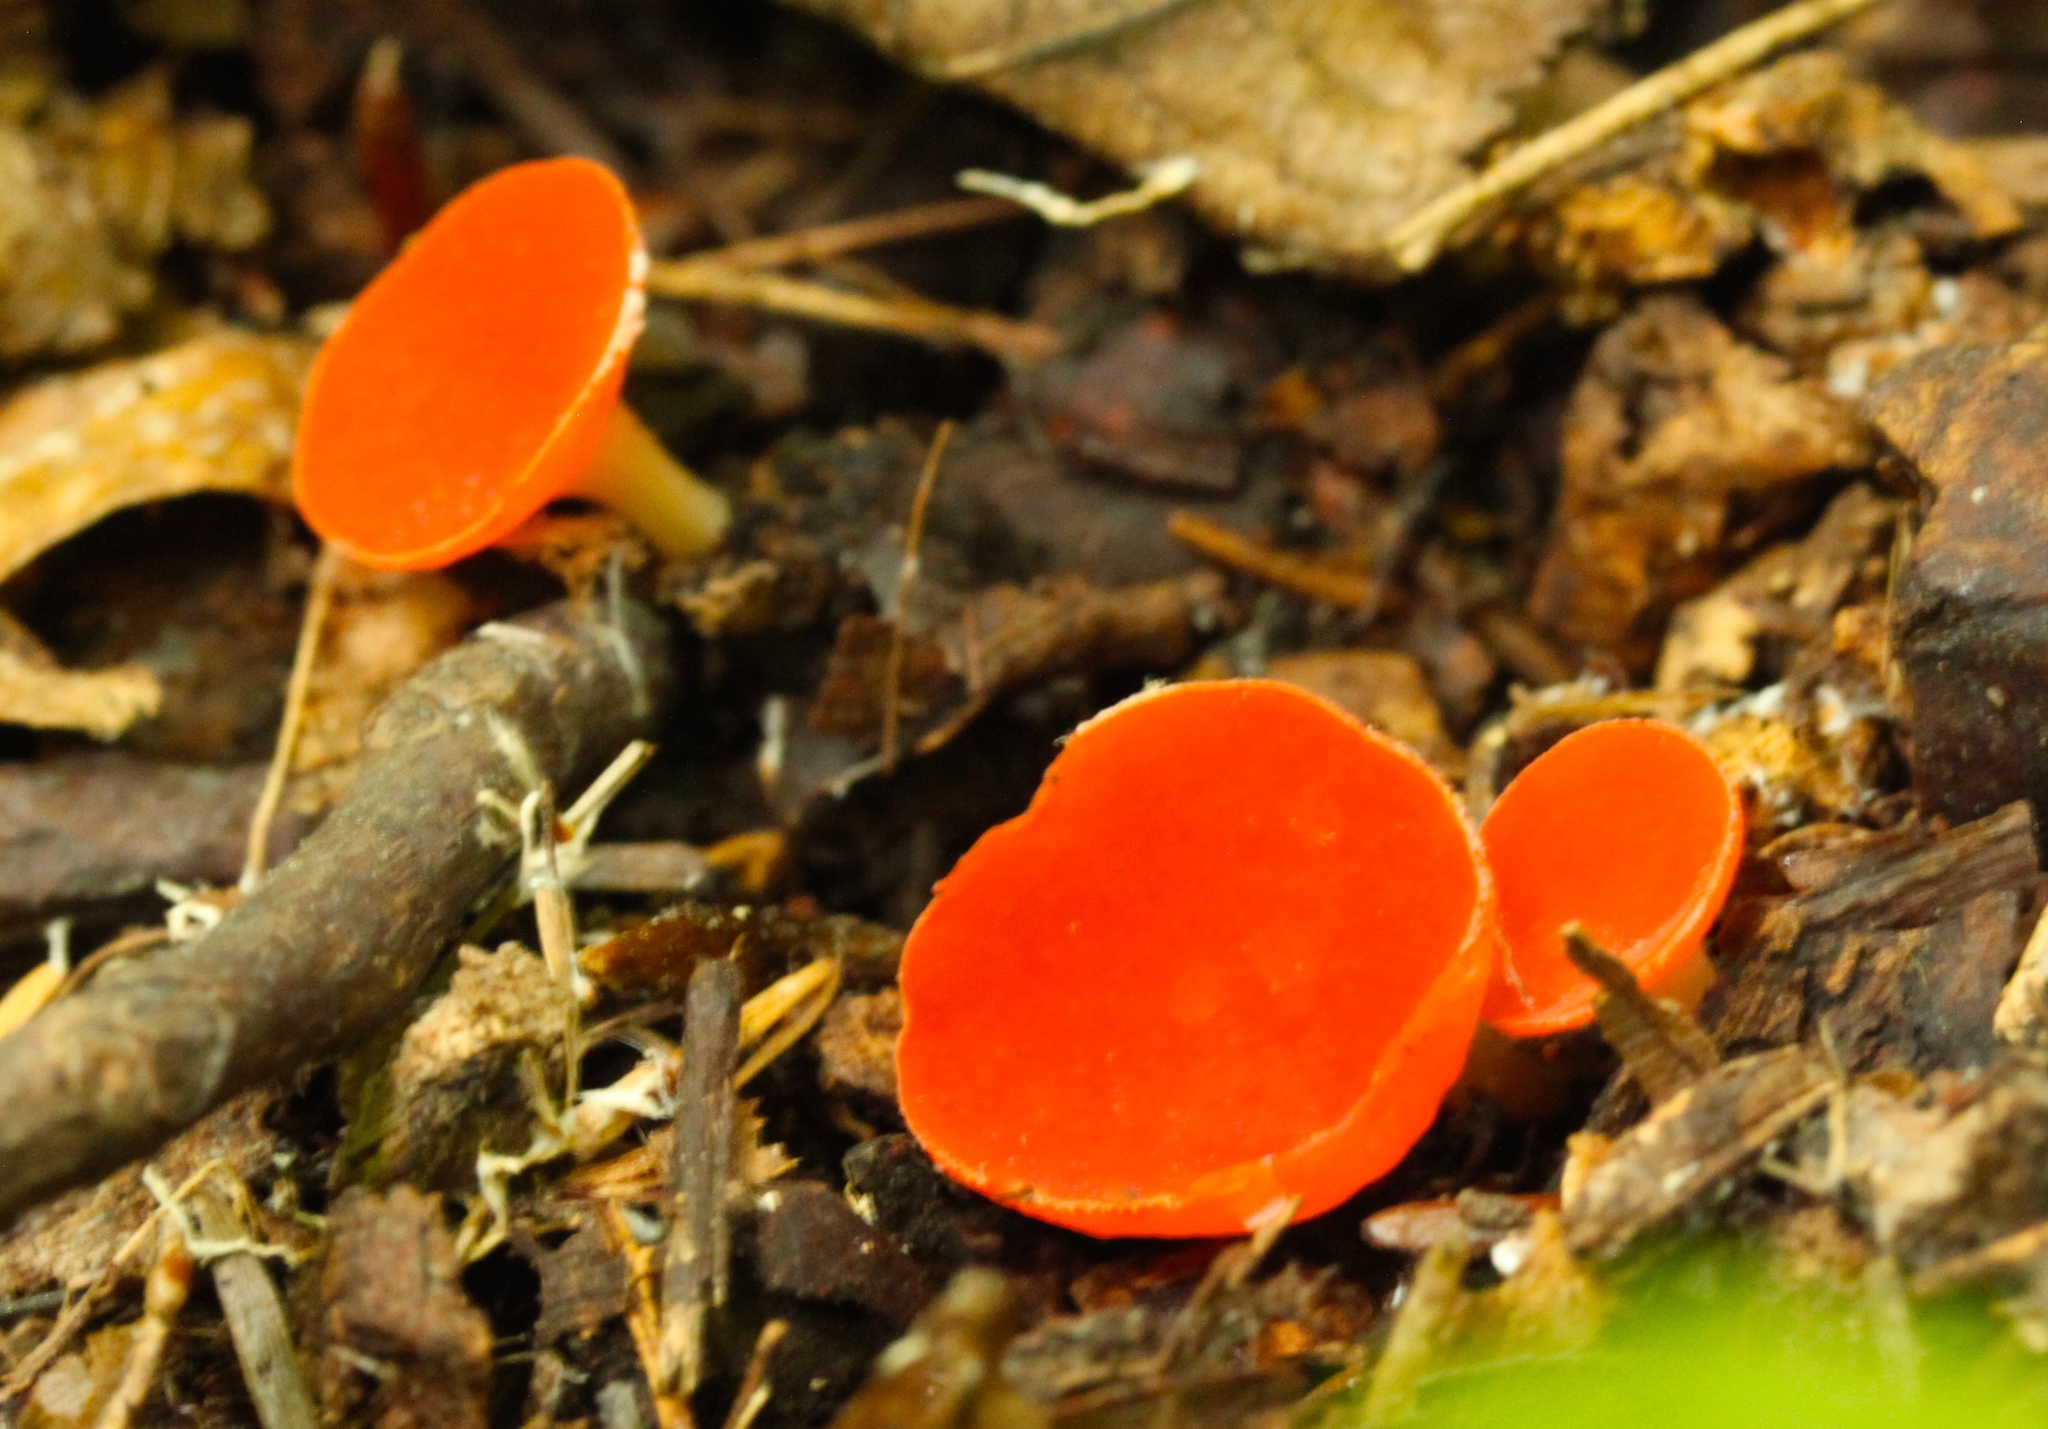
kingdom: Fungi
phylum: Ascomycota
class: Pezizomycetes
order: Pezizales
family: Sarcoscyphaceae
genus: Sarcoscypha
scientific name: Sarcoscypha occidentalis
